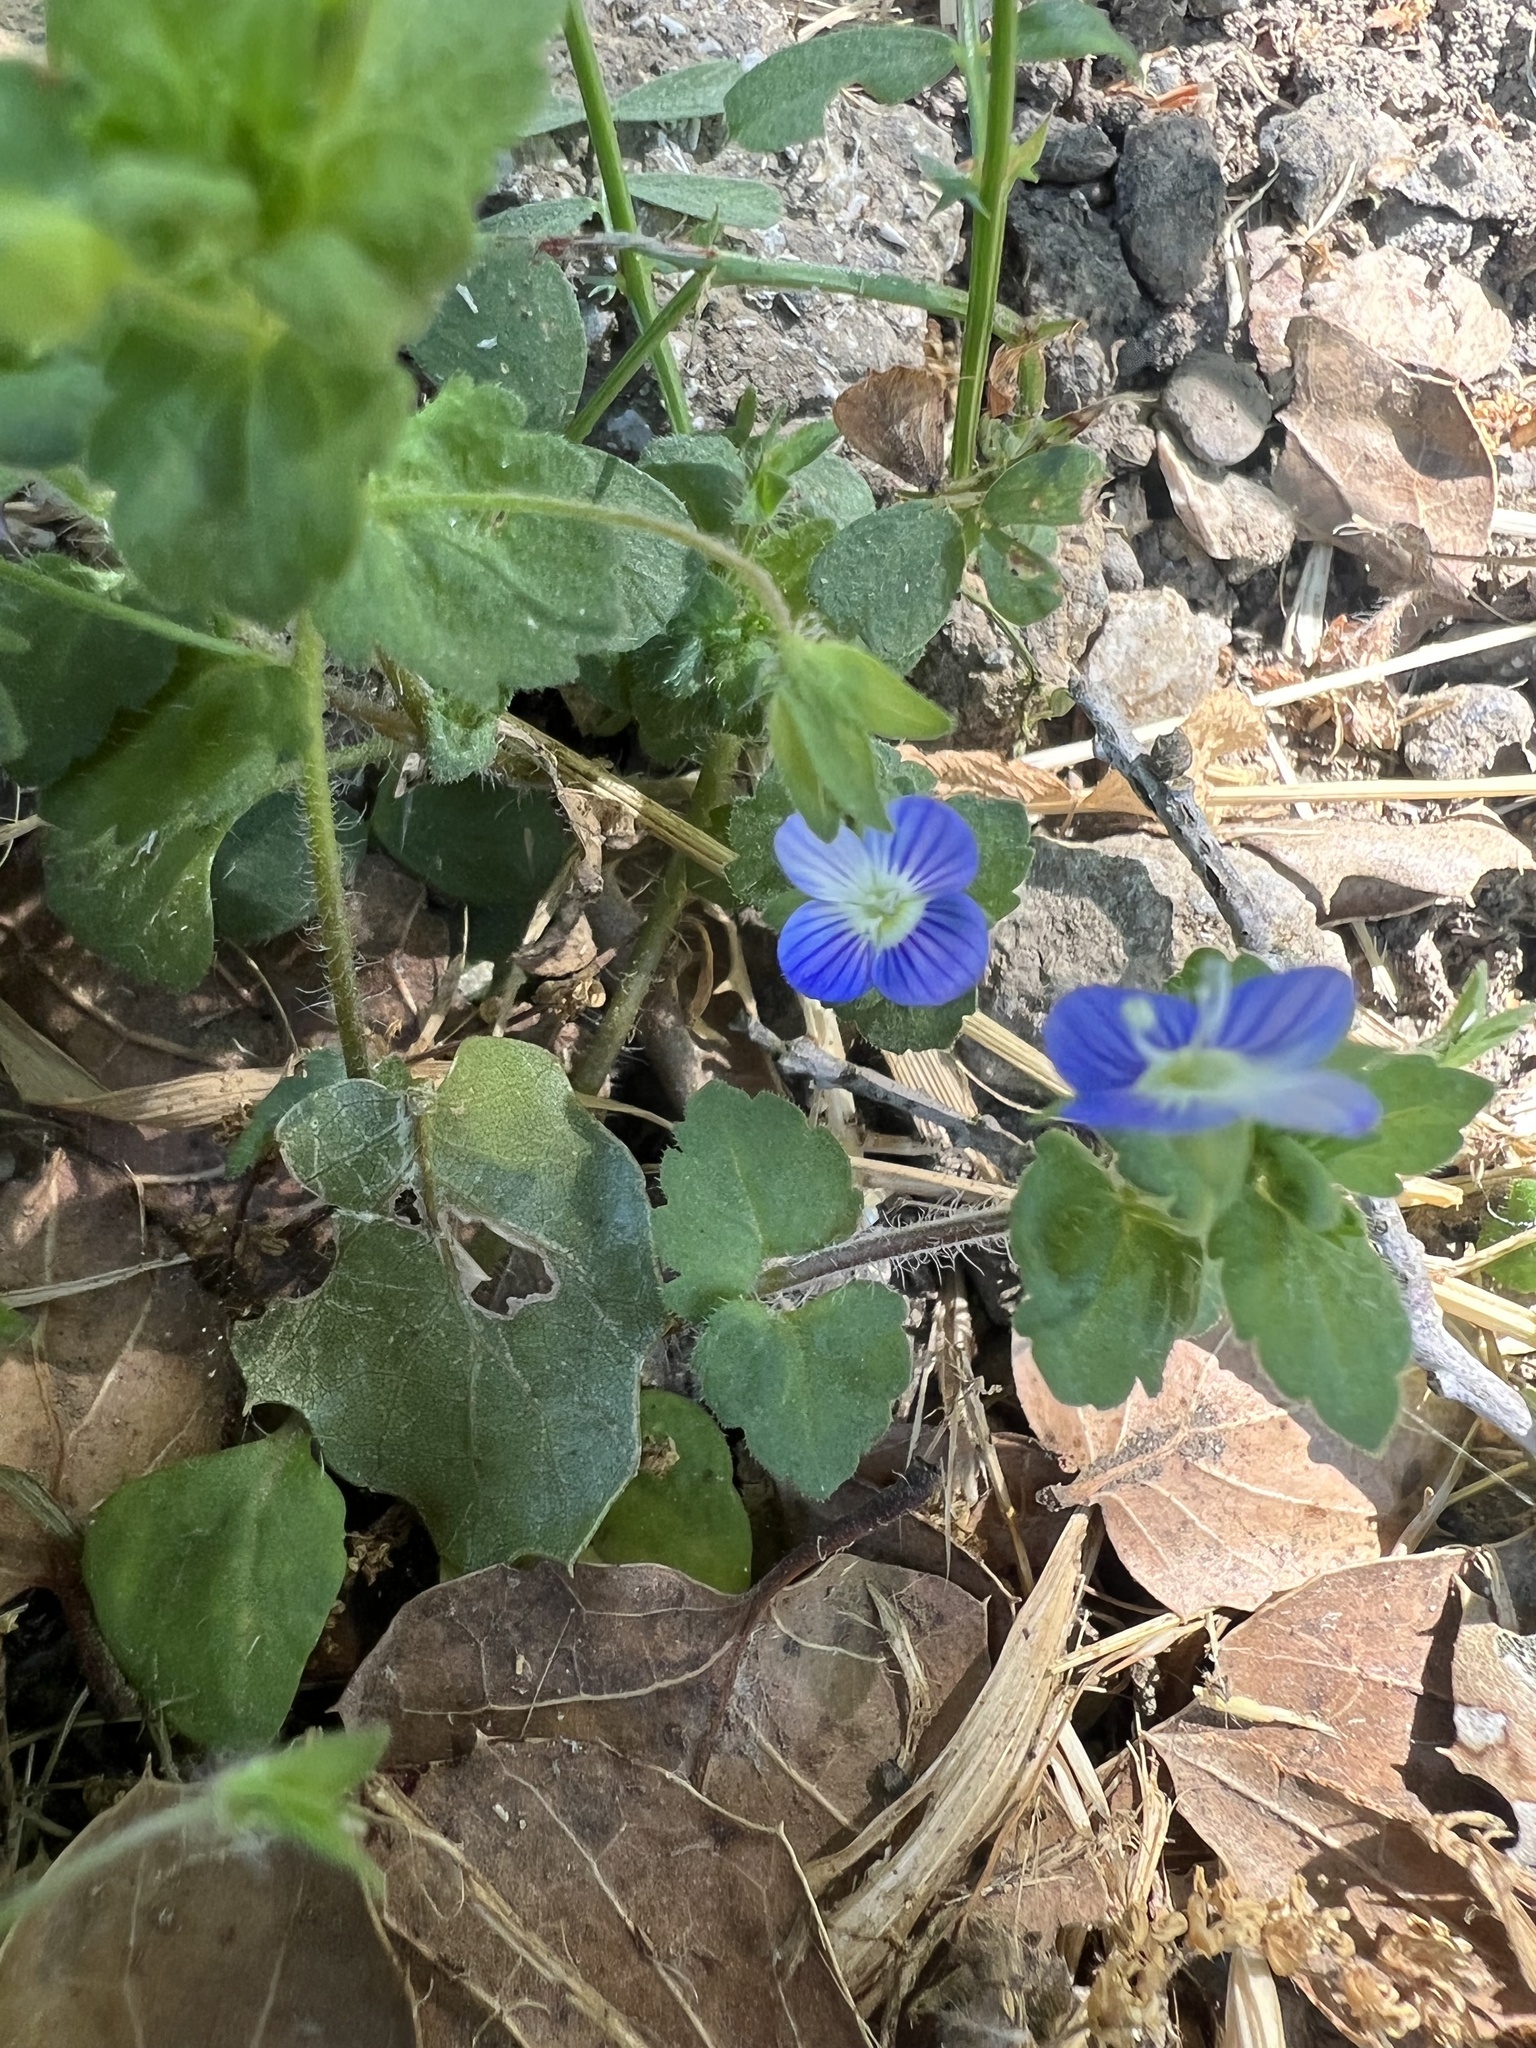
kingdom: Plantae
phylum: Tracheophyta
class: Magnoliopsida
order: Lamiales
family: Plantaginaceae
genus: Veronica
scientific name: Veronica persica
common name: Common field-speedwell
